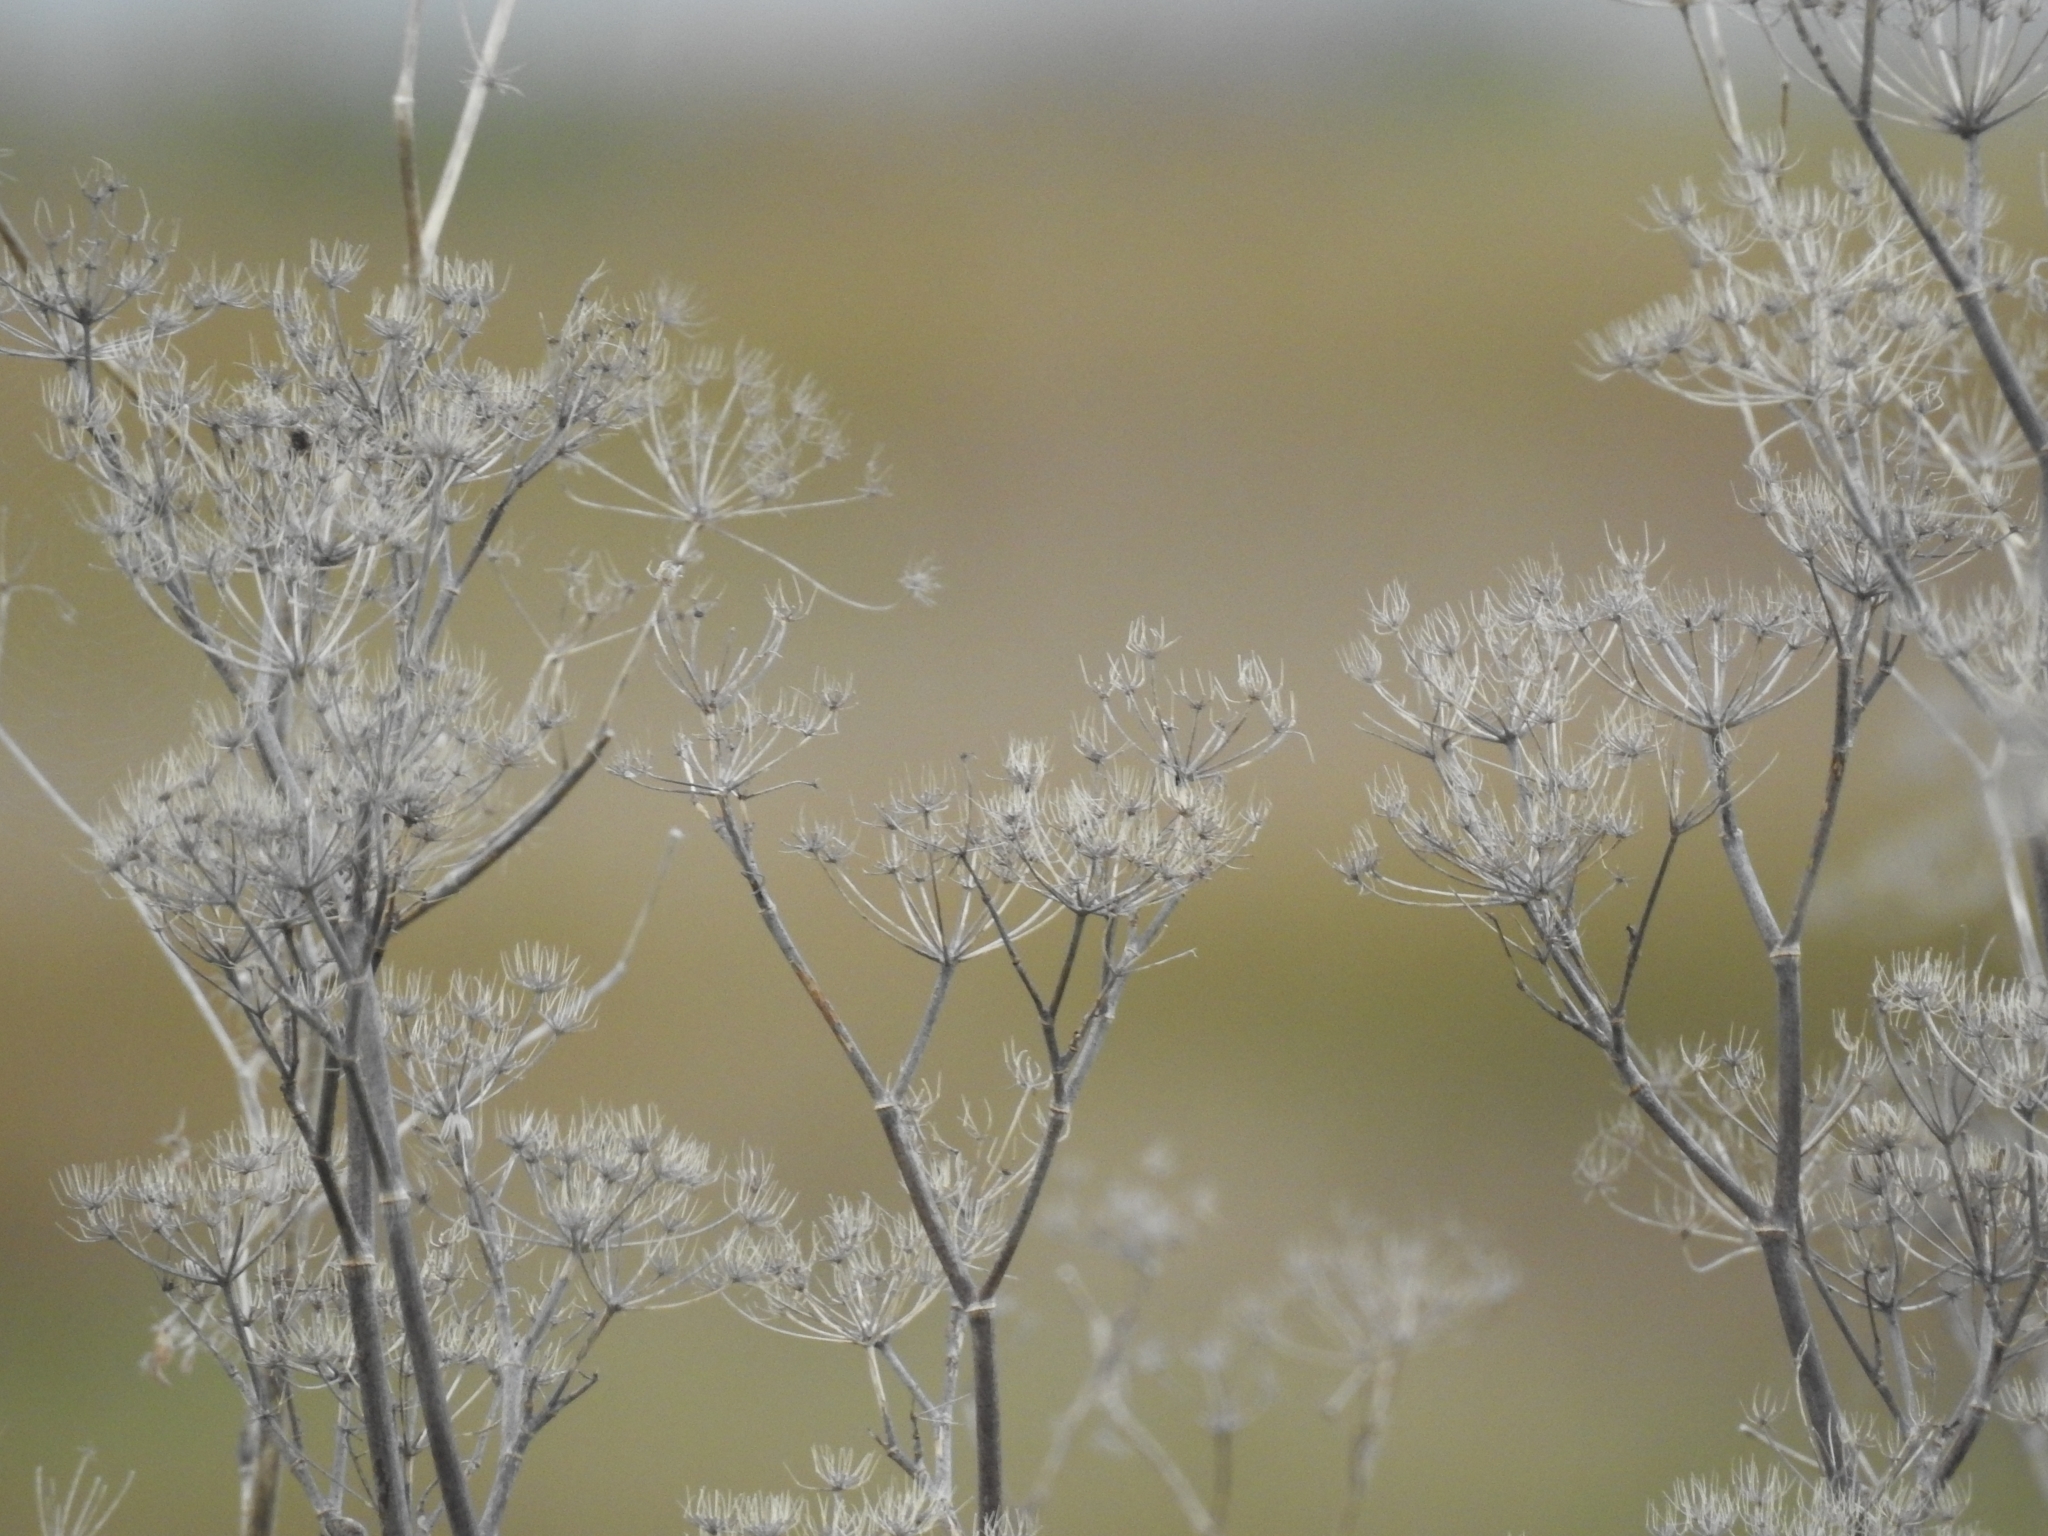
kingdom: Plantae
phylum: Tracheophyta
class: Magnoliopsida
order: Apiales
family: Apiaceae
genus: Foeniculum
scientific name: Foeniculum vulgare
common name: Fennel
